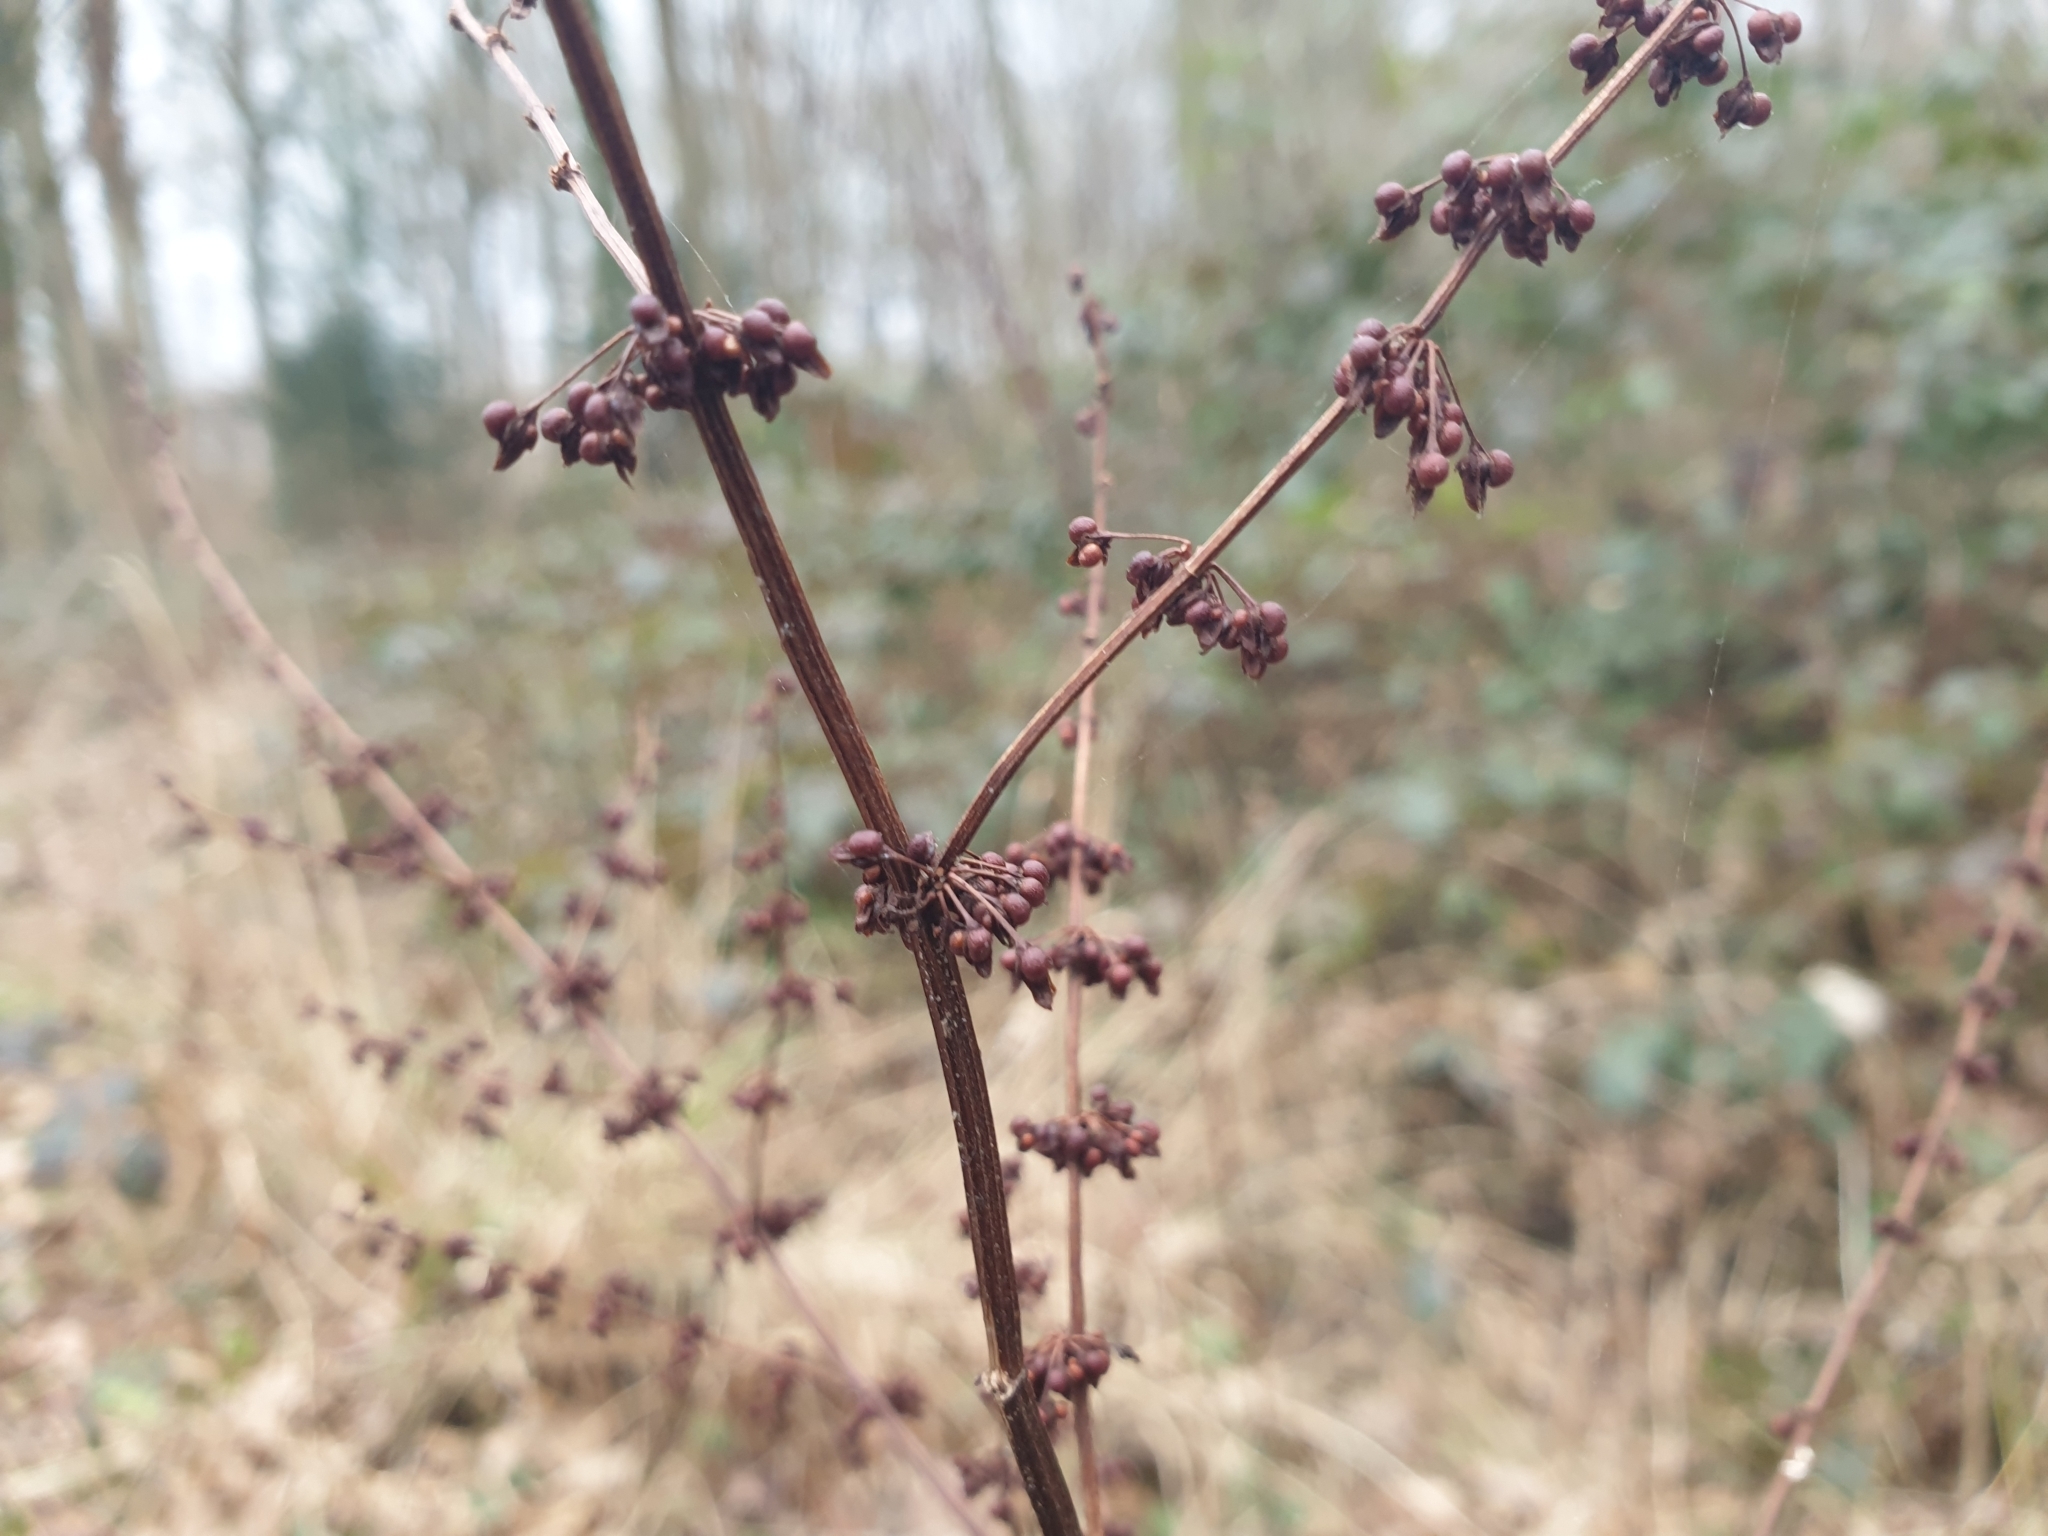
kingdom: Plantae
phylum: Tracheophyta
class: Magnoliopsida
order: Caryophyllales
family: Polygonaceae
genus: Rumex
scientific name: Rumex sanguineus
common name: Wood dock
